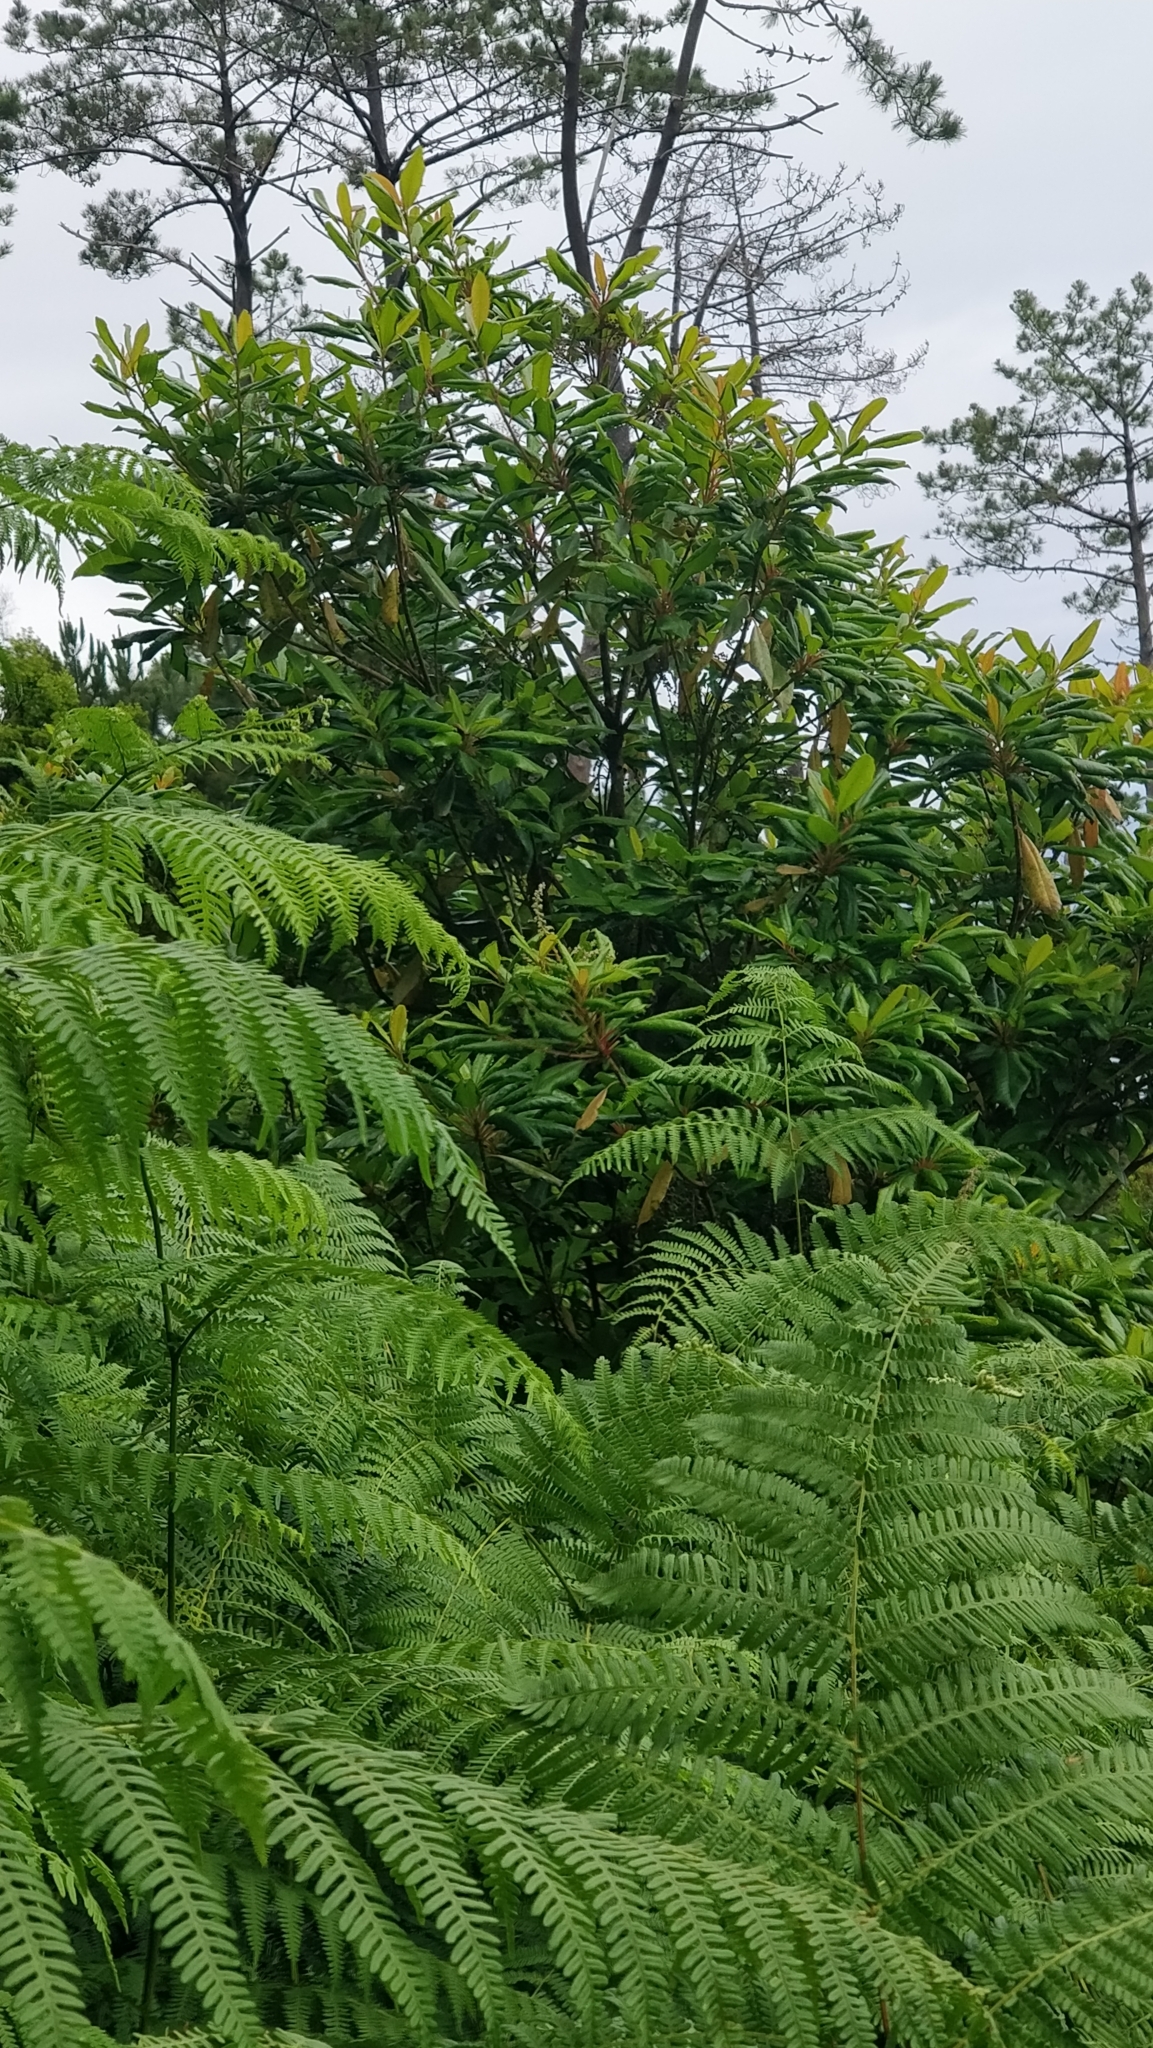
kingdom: Plantae
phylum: Tracheophyta
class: Magnoliopsida
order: Ericales
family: Clethraceae
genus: Clethra
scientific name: Clethra arborea
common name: Lily-of-the-valley-tree
